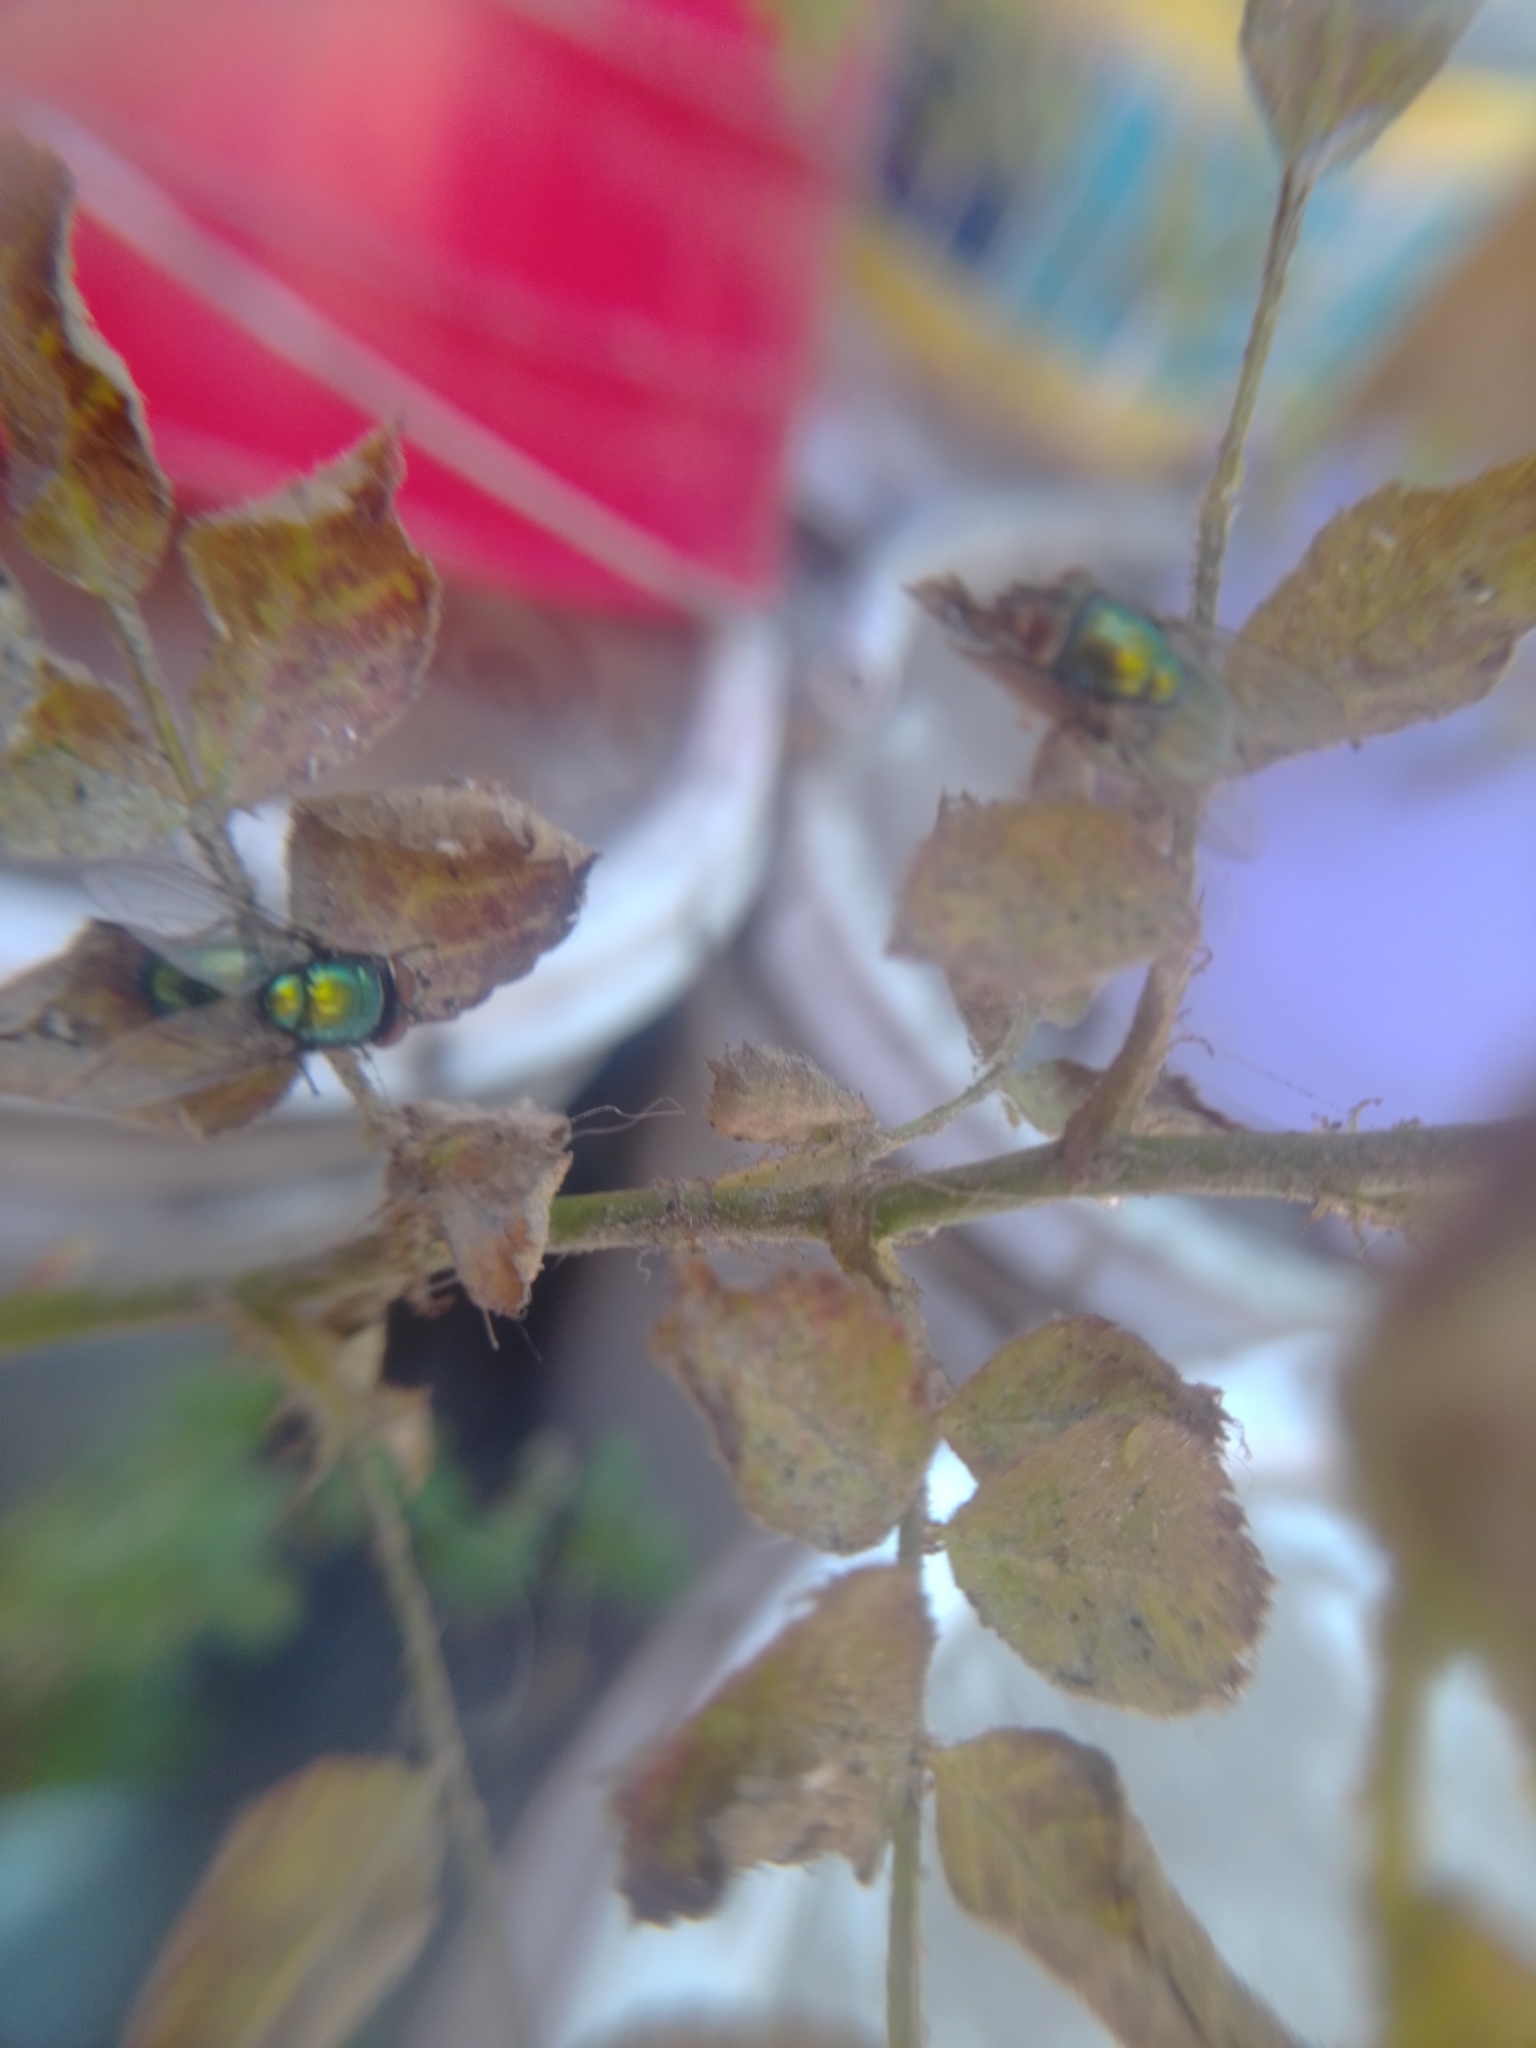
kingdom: Animalia
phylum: Arthropoda
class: Insecta
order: Diptera
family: Calliphoridae
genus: Lucilia
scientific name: Lucilia sericata
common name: Blow fly
